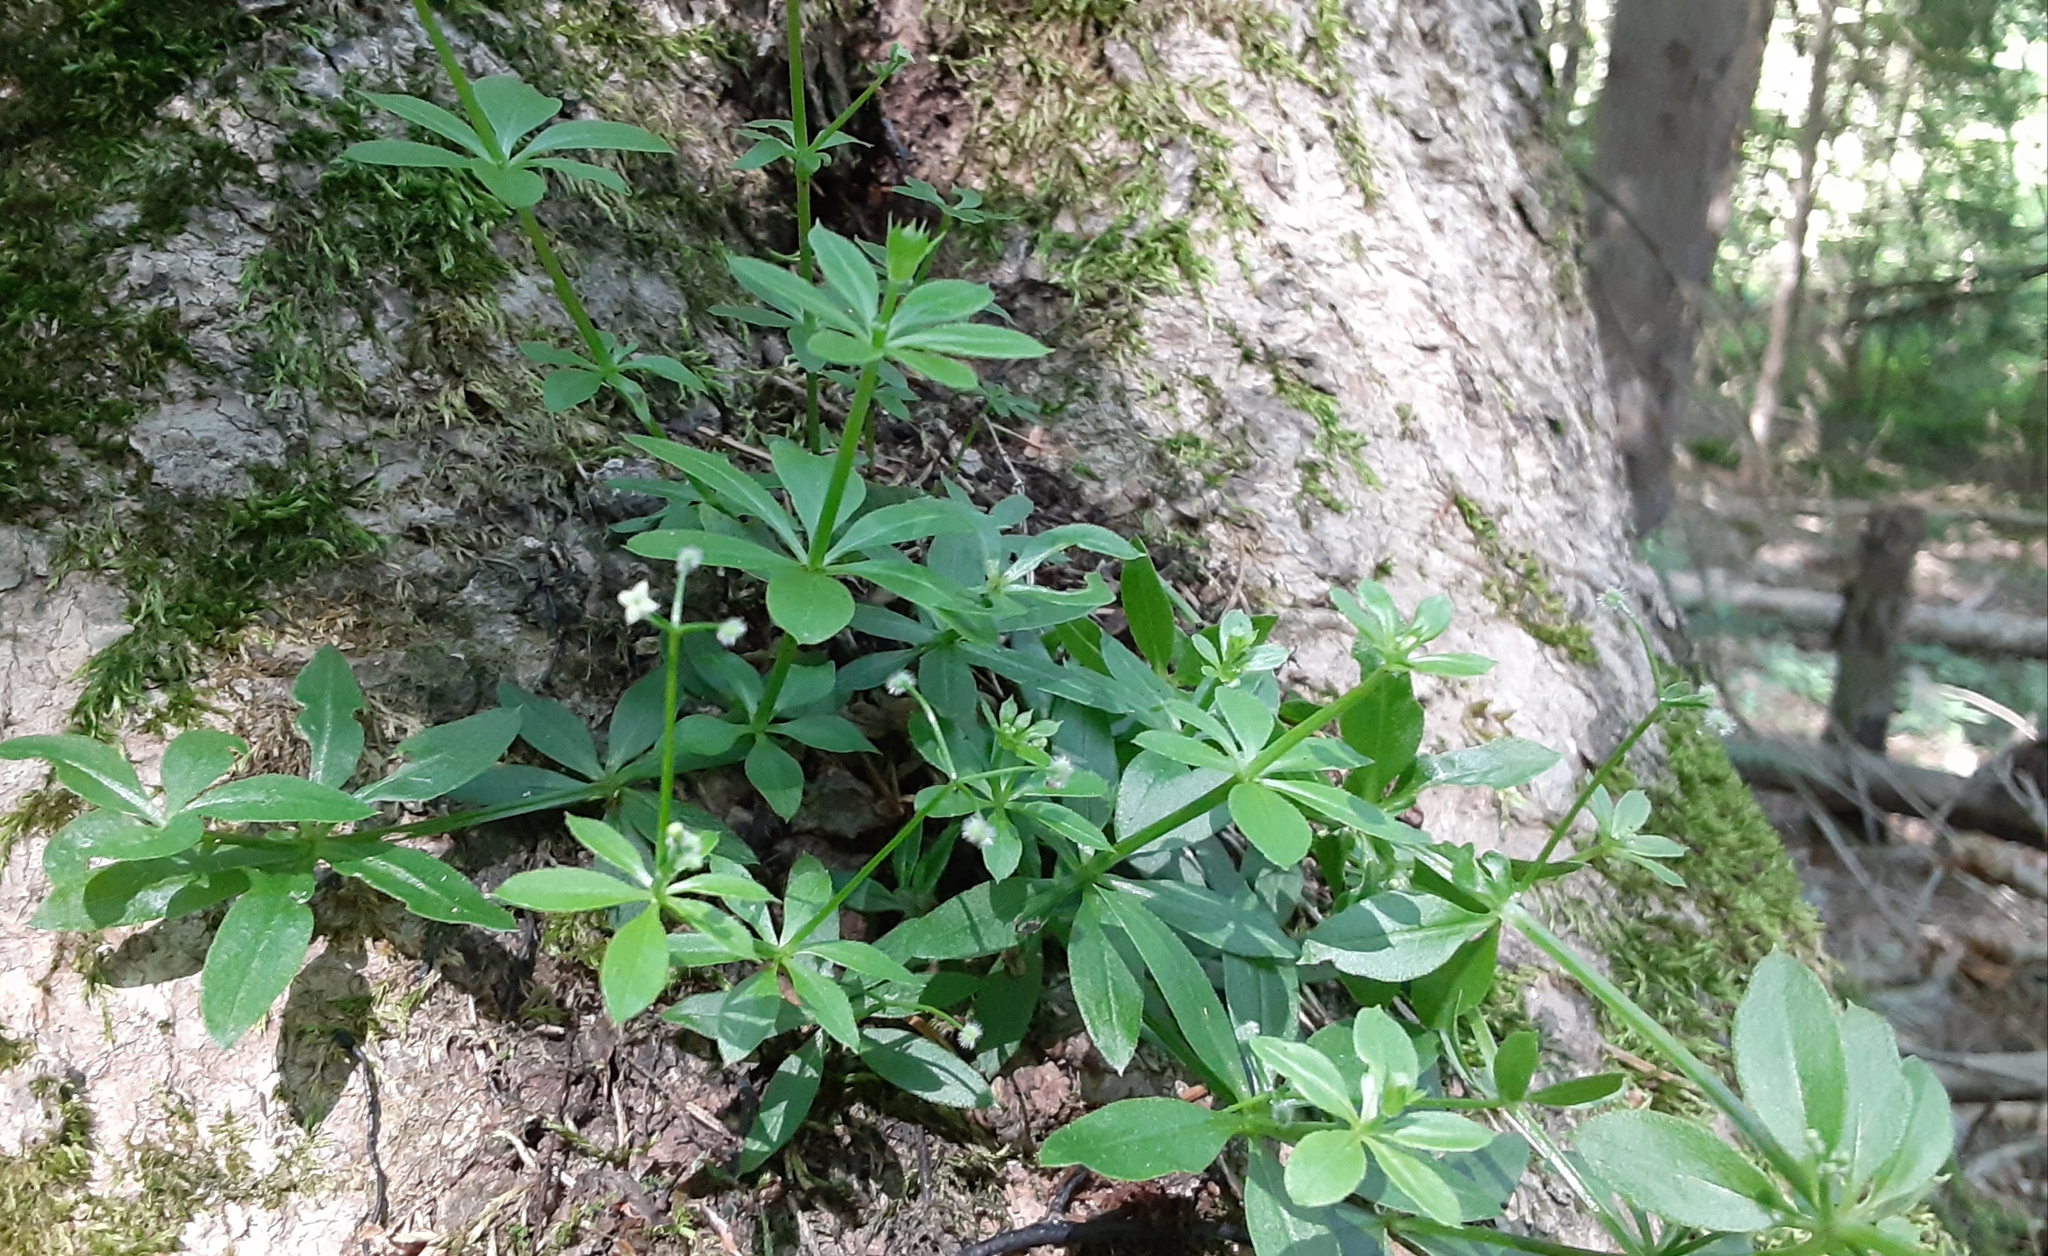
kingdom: Plantae
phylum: Tracheophyta
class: Magnoliopsida
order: Gentianales
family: Rubiaceae
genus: Galium
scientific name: Galium triflorum
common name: Fragrant bedstraw
